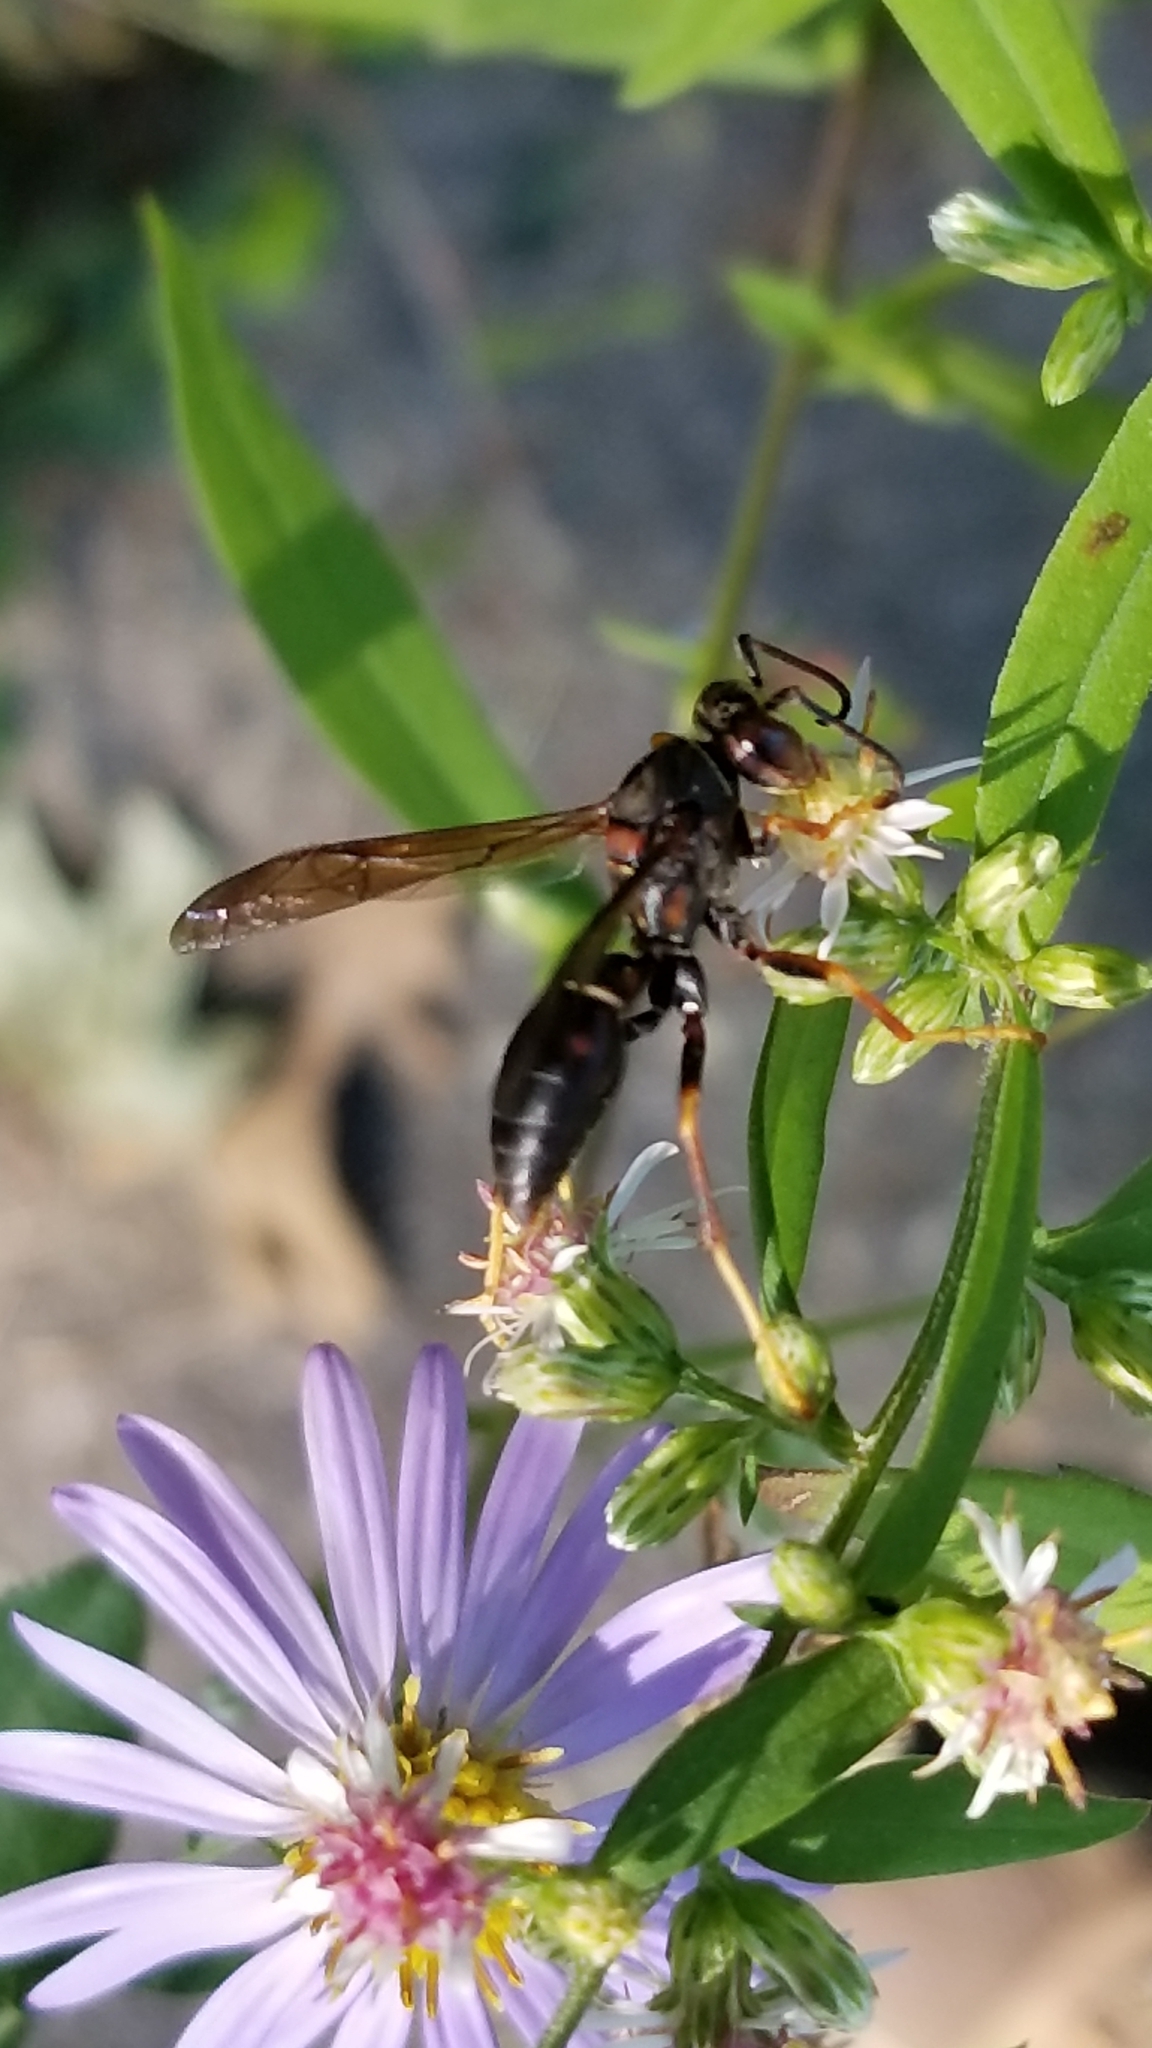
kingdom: Animalia
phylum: Arthropoda
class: Insecta
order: Hymenoptera
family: Eumenidae
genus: Polistes
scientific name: Polistes fuscatus
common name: Dark paper wasp
